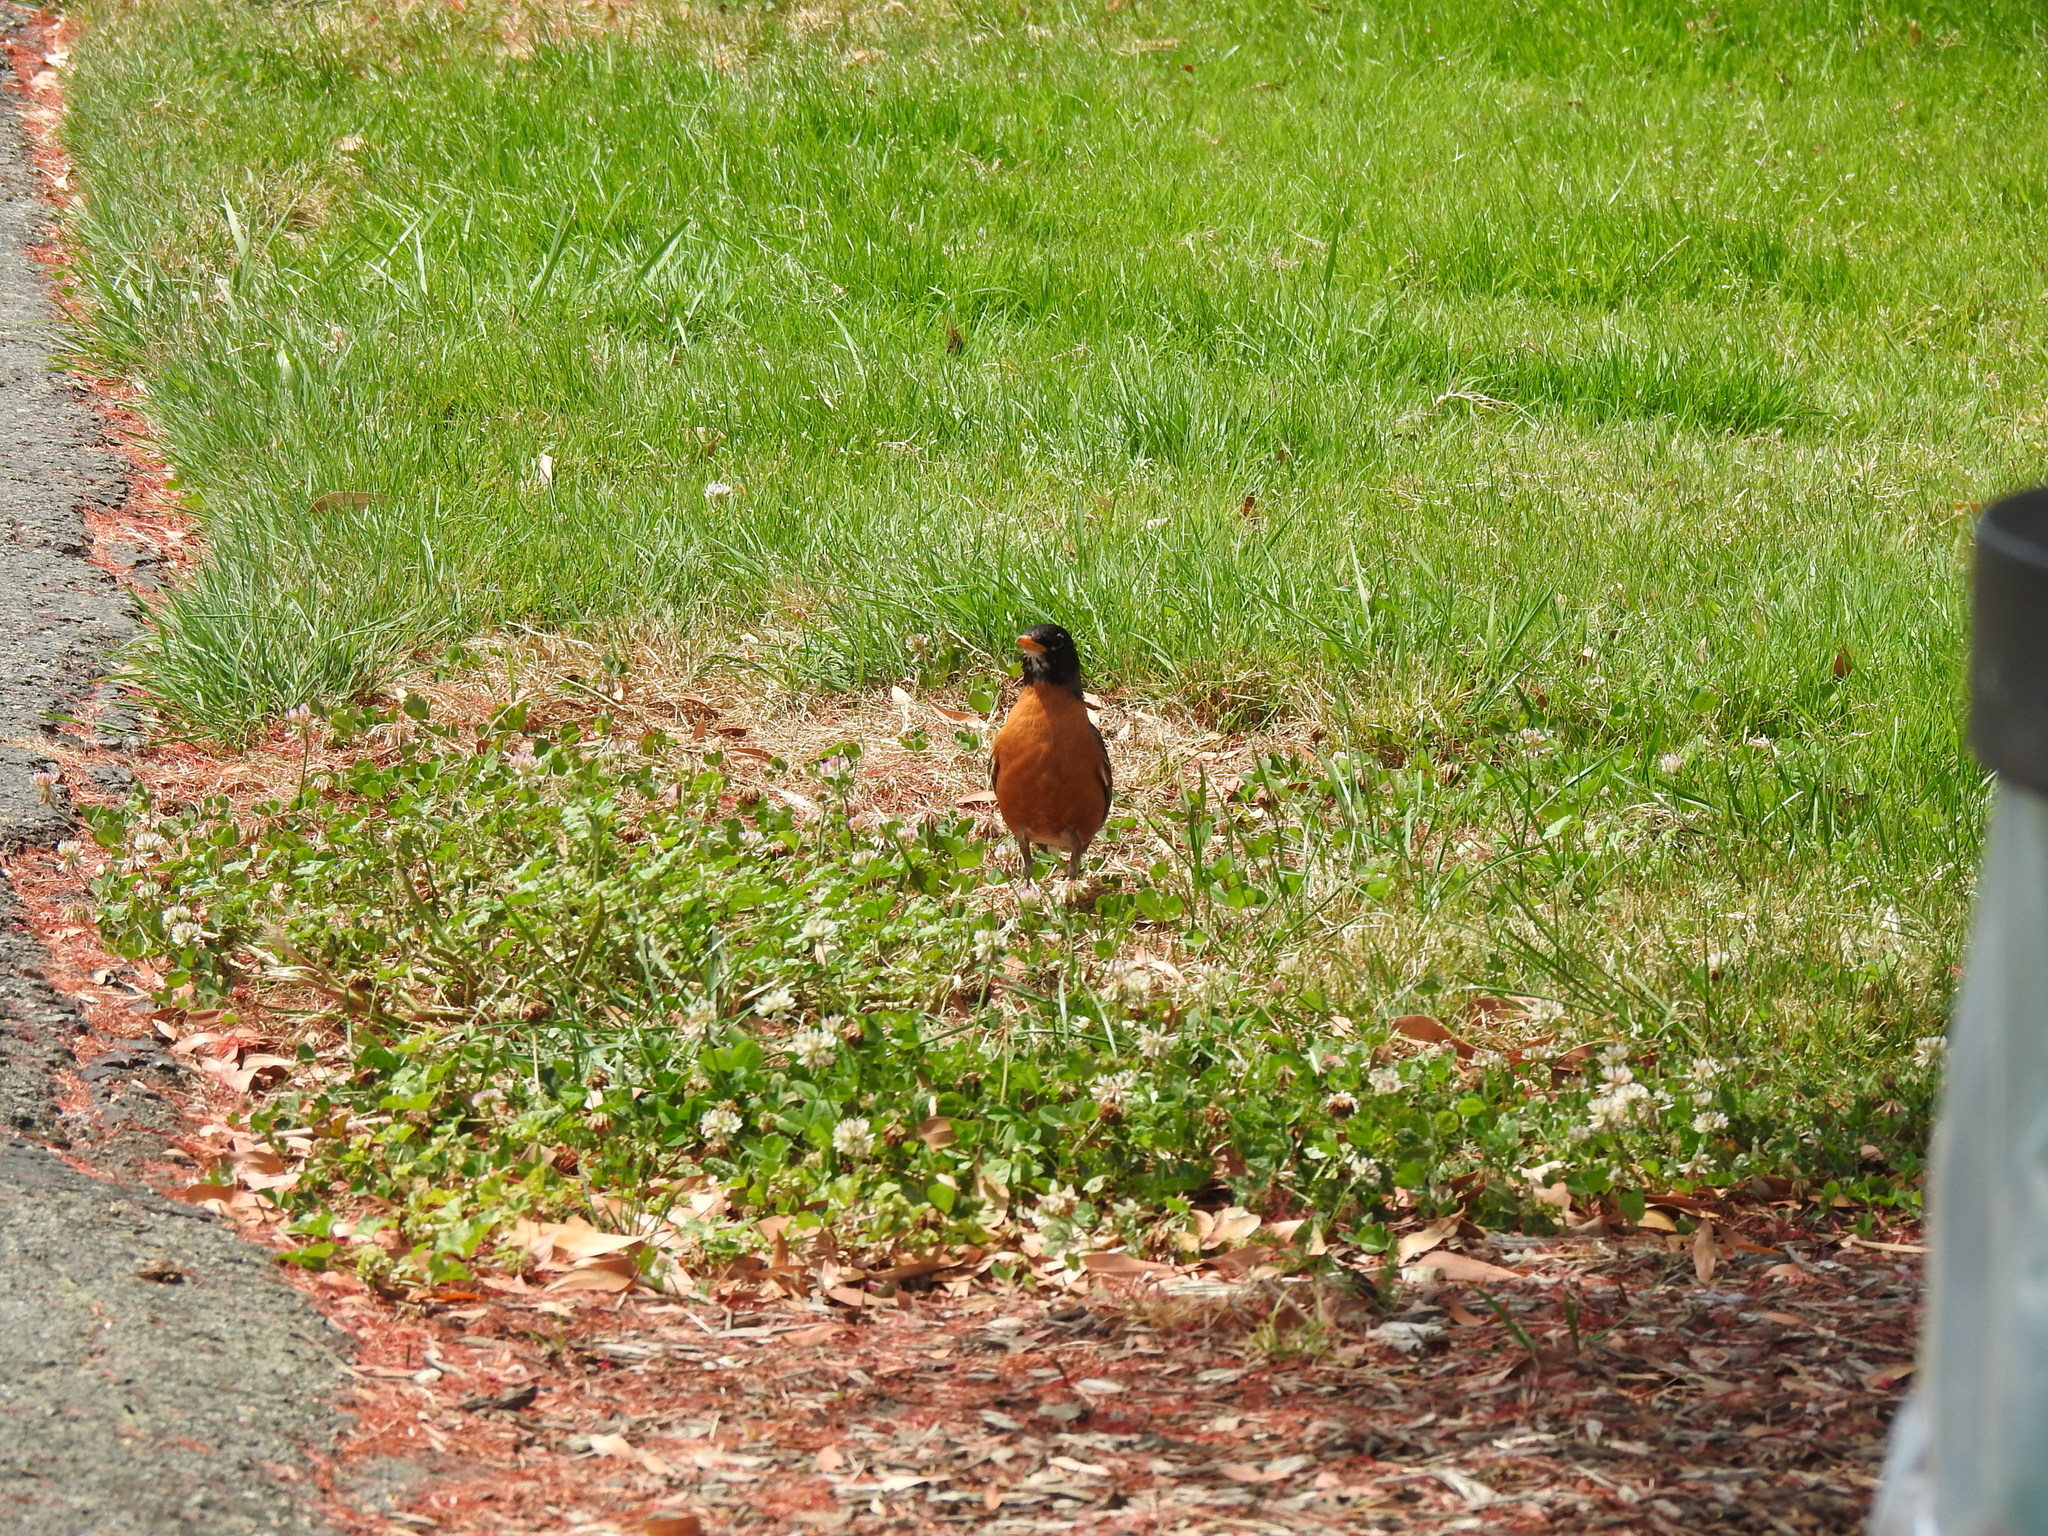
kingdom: Animalia
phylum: Chordata
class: Aves
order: Passeriformes
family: Turdidae
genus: Turdus
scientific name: Turdus migratorius
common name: American robin
